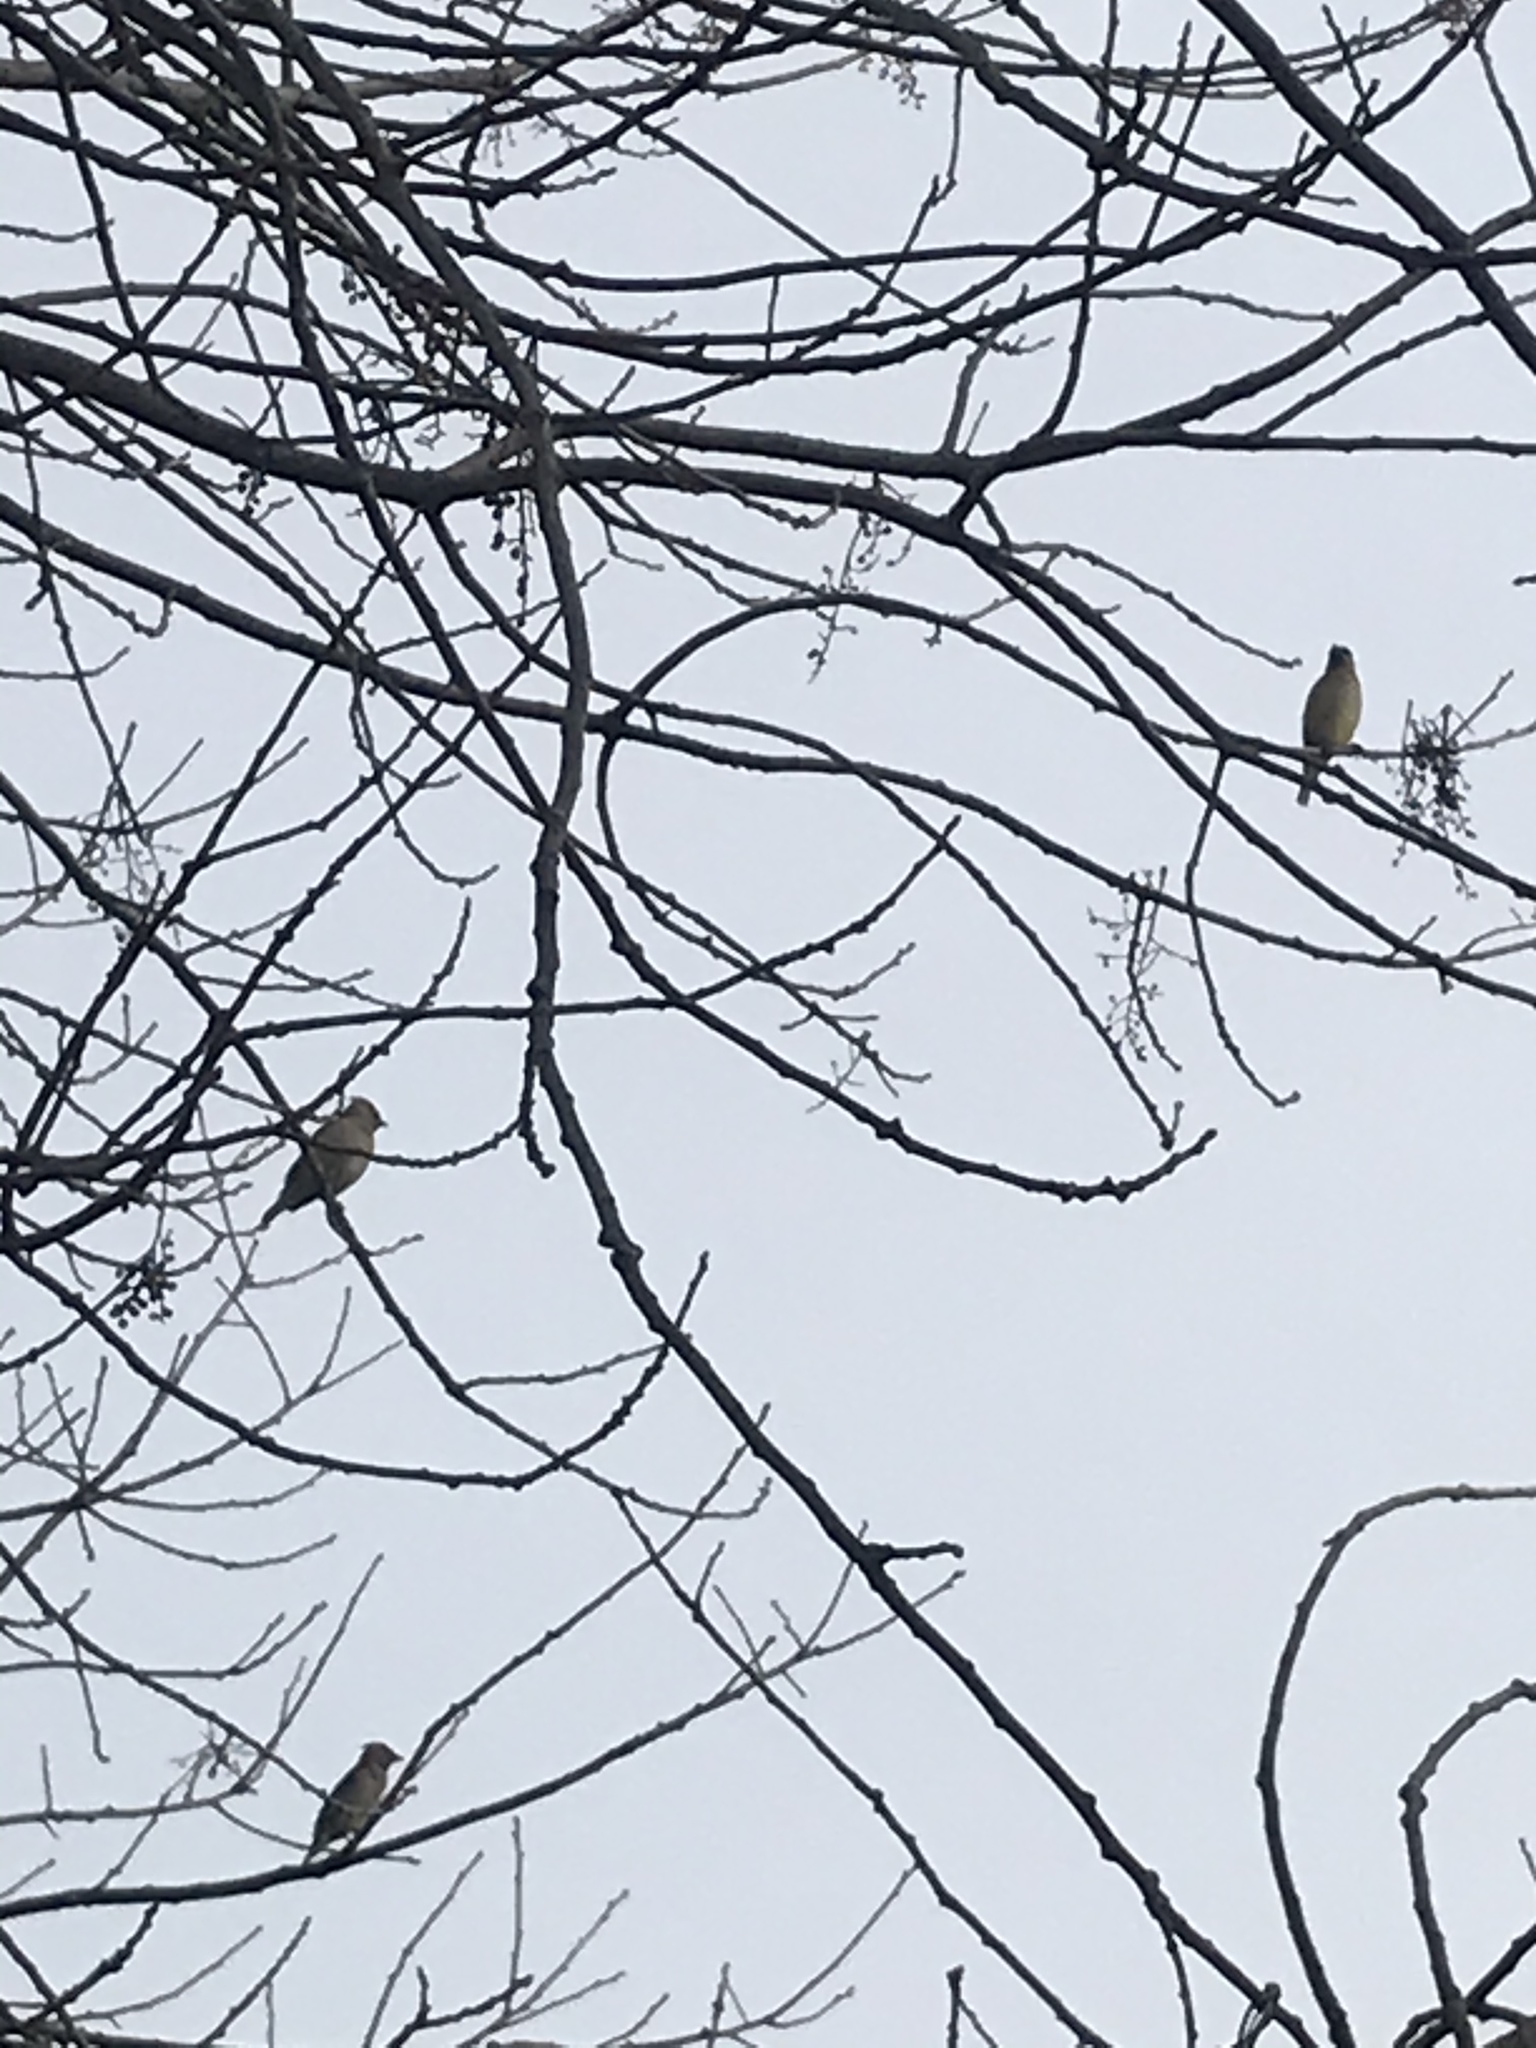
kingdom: Animalia
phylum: Chordata
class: Aves
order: Passeriformes
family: Bombycillidae
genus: Bombycilla
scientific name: Bombycilla cedrorum
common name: Cedar waxwing
